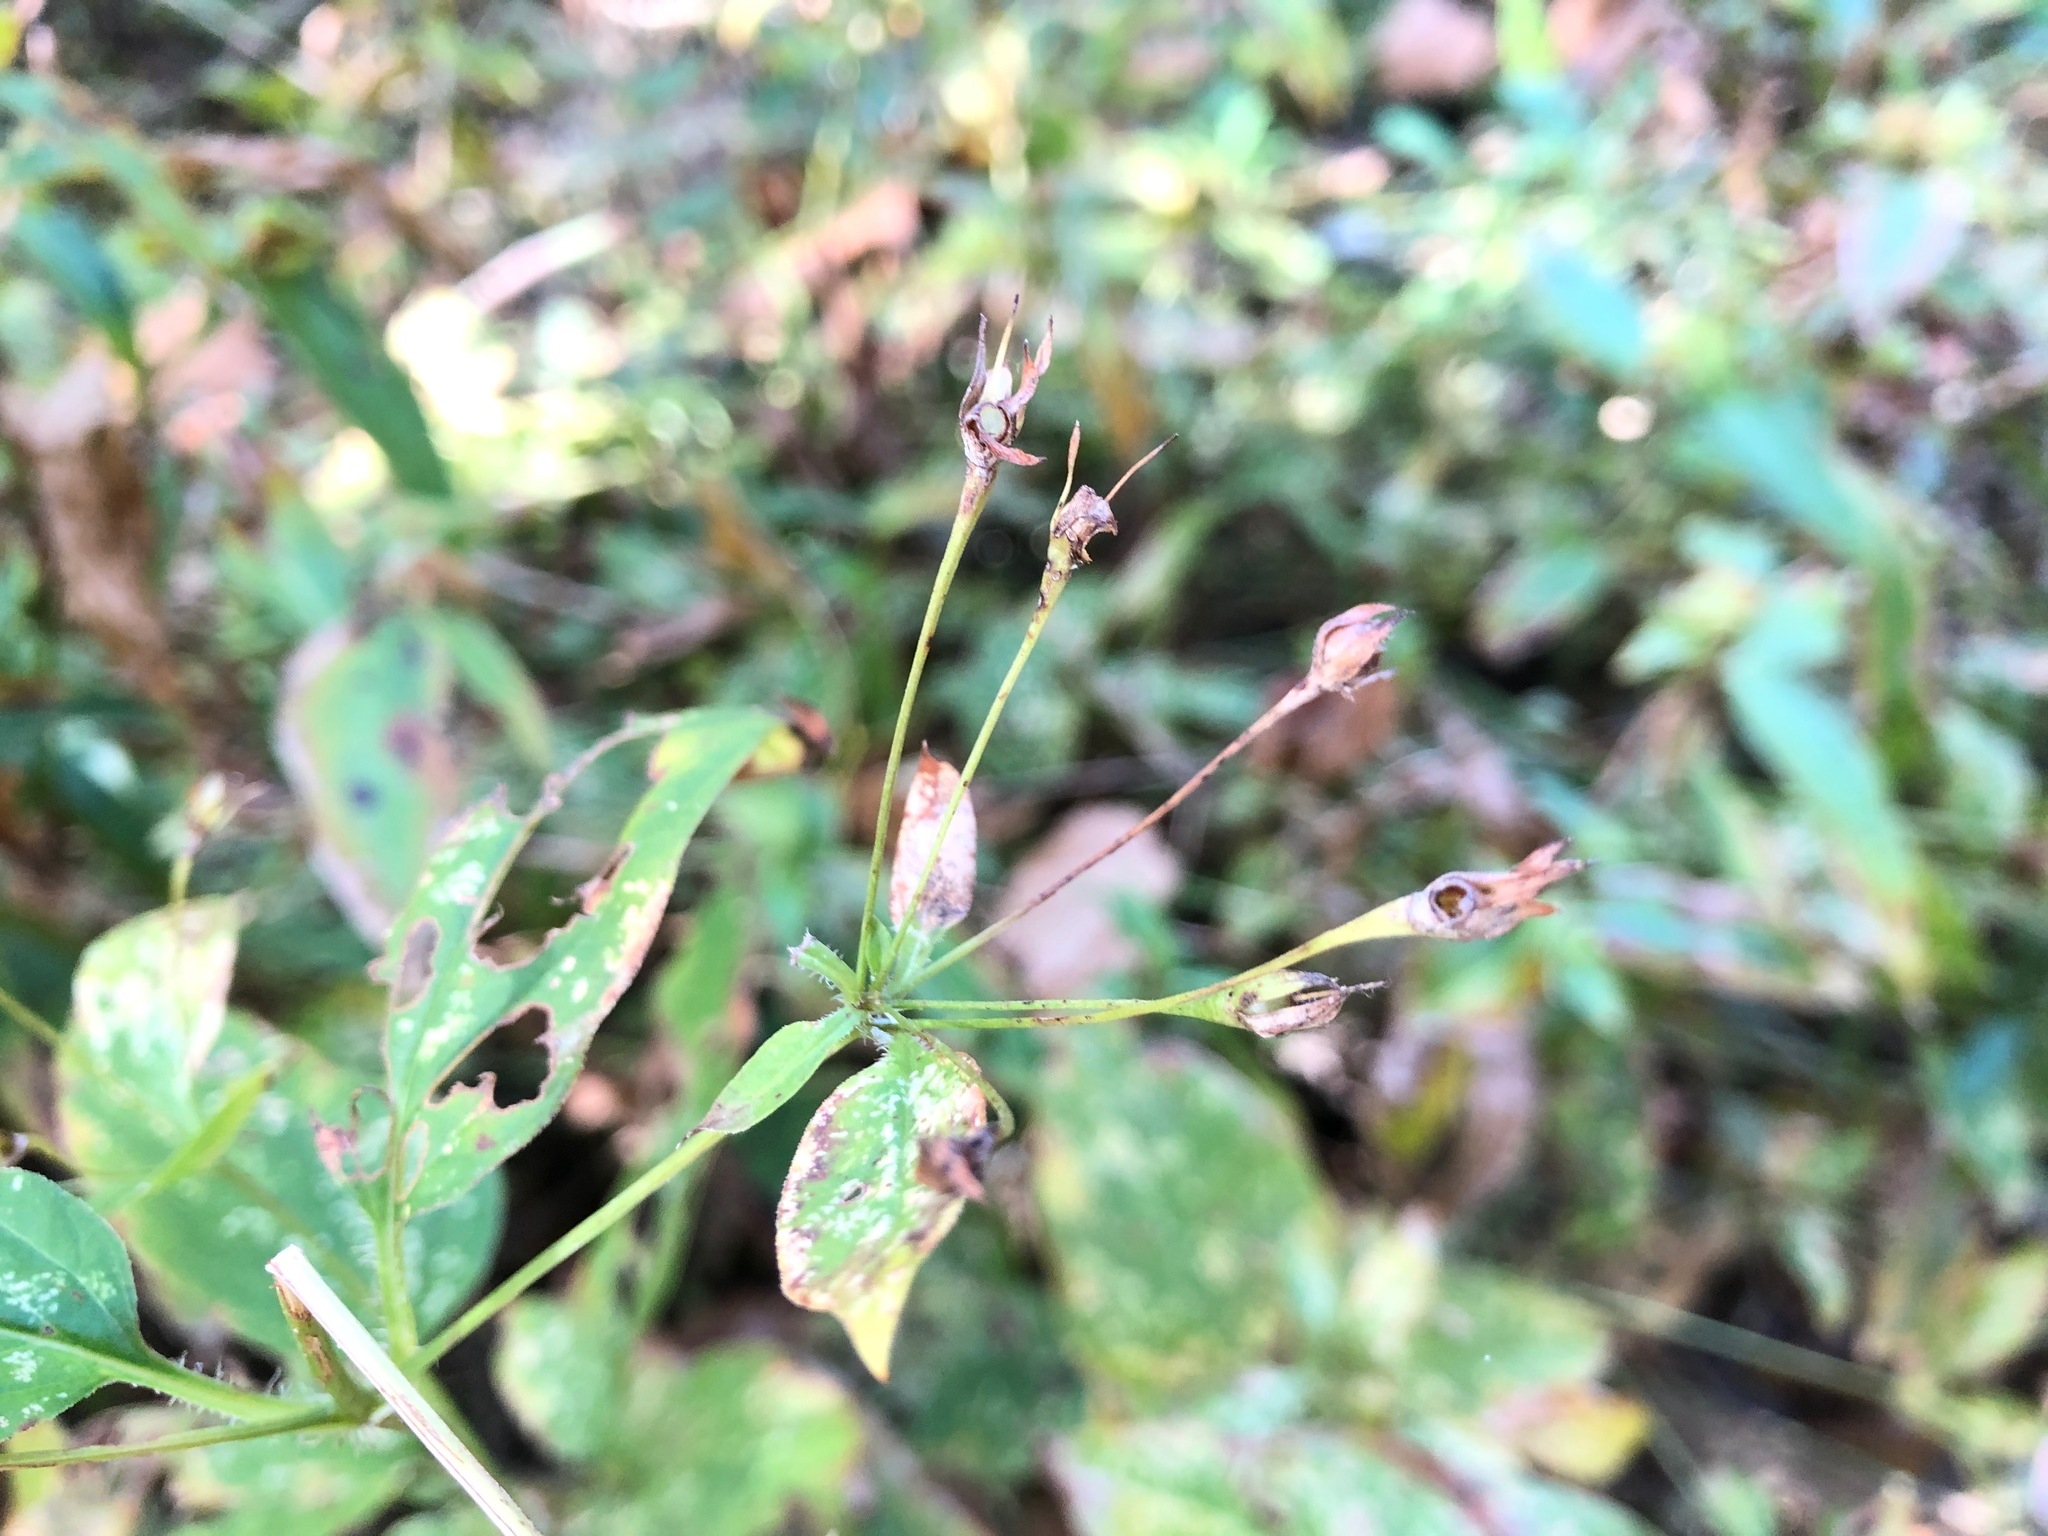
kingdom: Plantae
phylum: Tracheophyta
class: Magnoliopsida
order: Ericales
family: Primulaceae
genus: Lysimachia
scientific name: Lysimachia ciliata
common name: Fringed loosestrife
